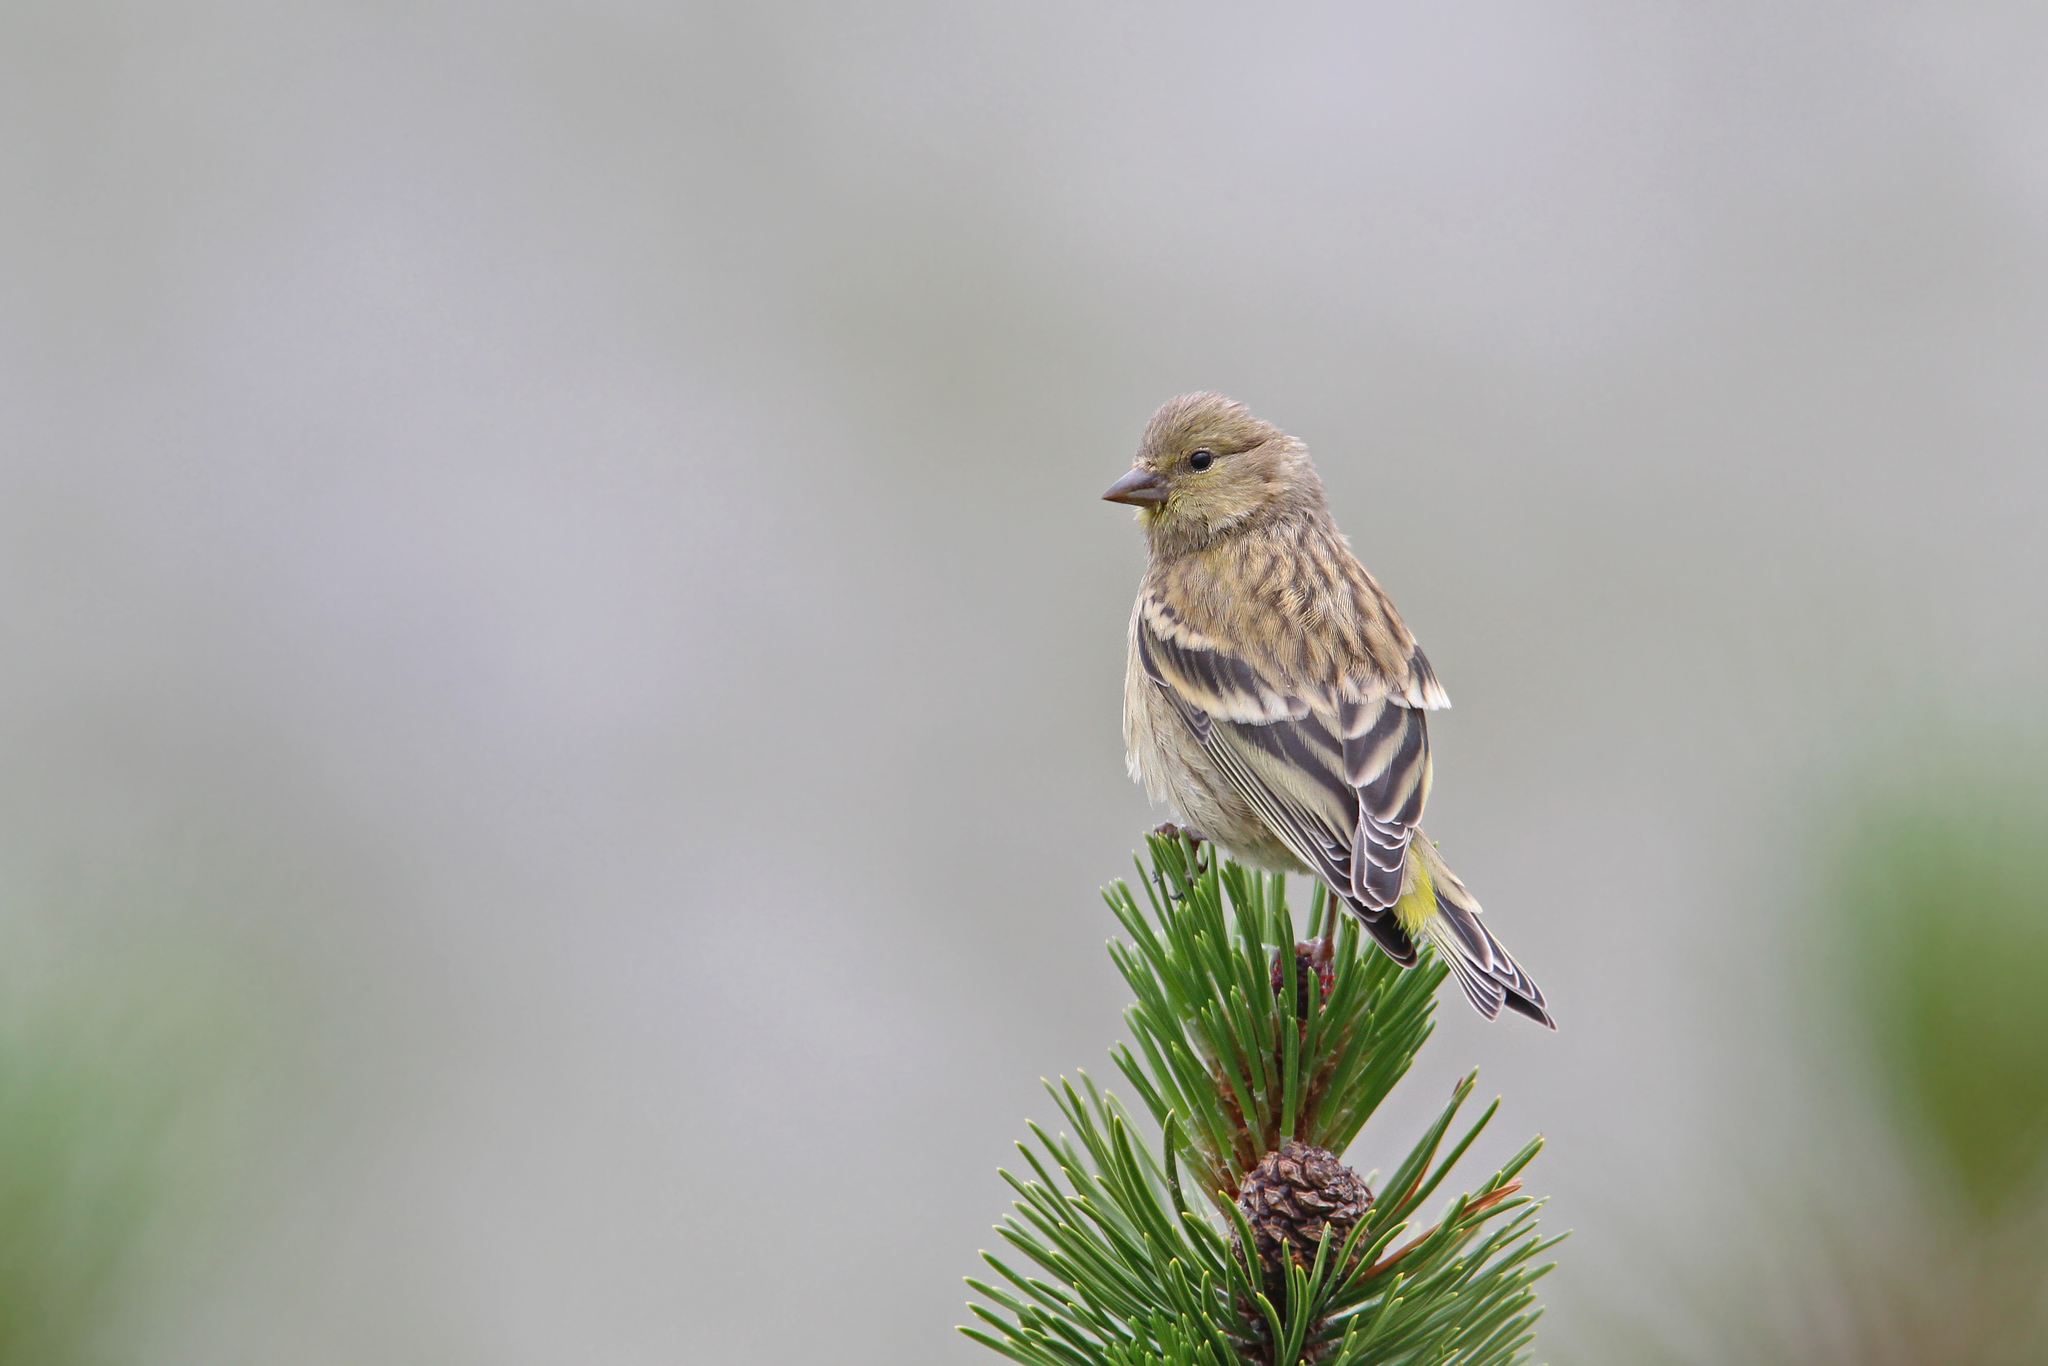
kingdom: Animalia
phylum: Chordata
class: Aves
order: Passeriformes
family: Fringillidae
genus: Carduelis
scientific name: Carduelis citrinella
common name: Citril finch
